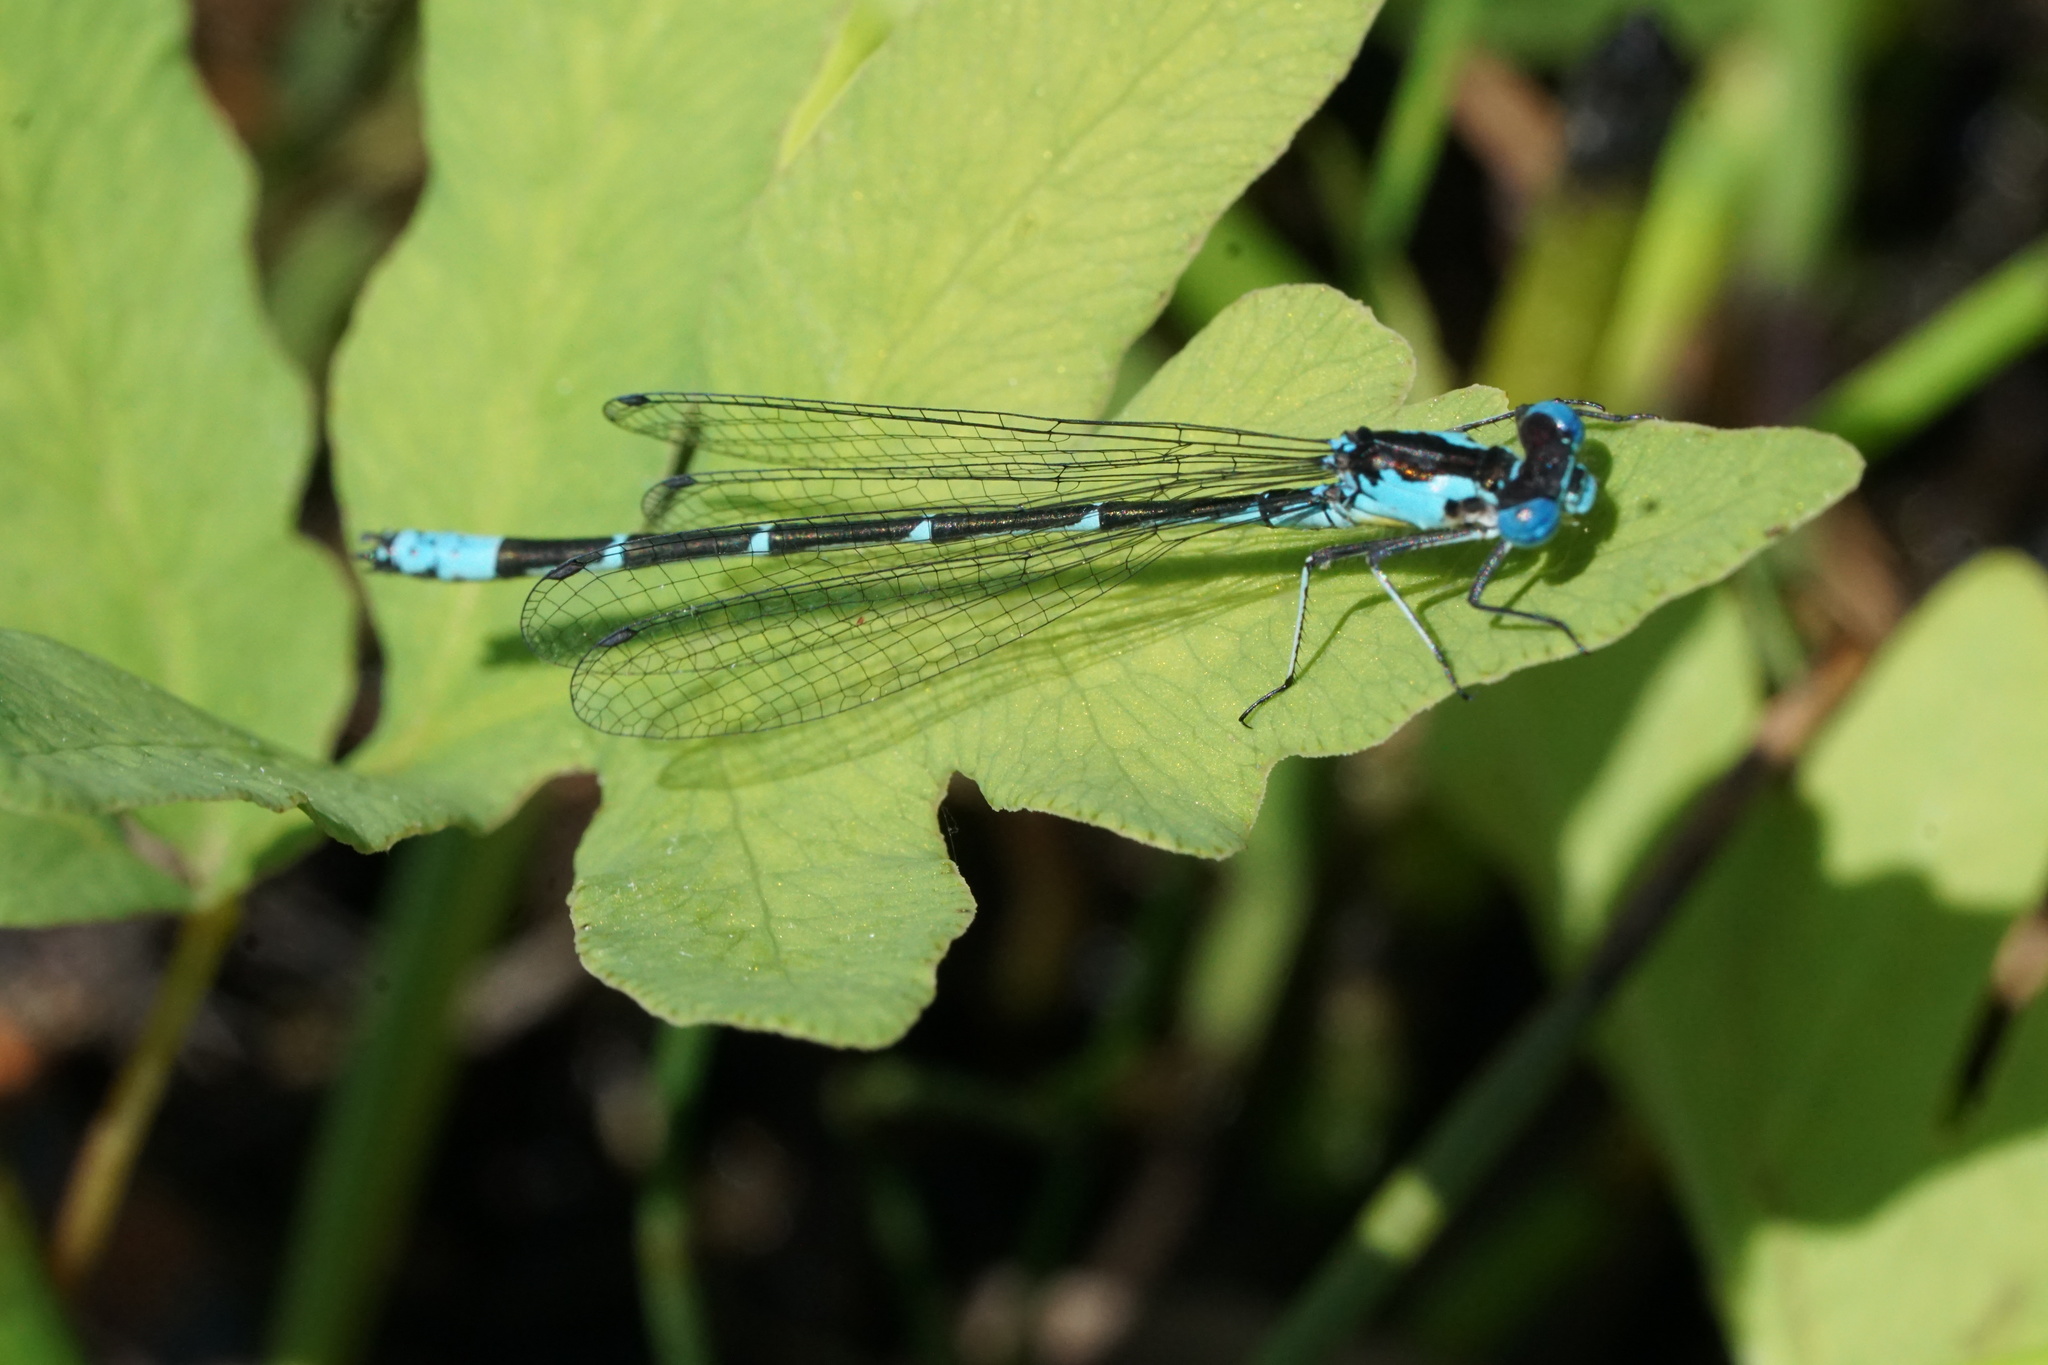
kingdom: Animalia
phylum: Arthropoda
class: Insecta
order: Odonata
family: Coenagrionidae
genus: Chromagrion
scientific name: Chromagrion conditum
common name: Aurora damsel
